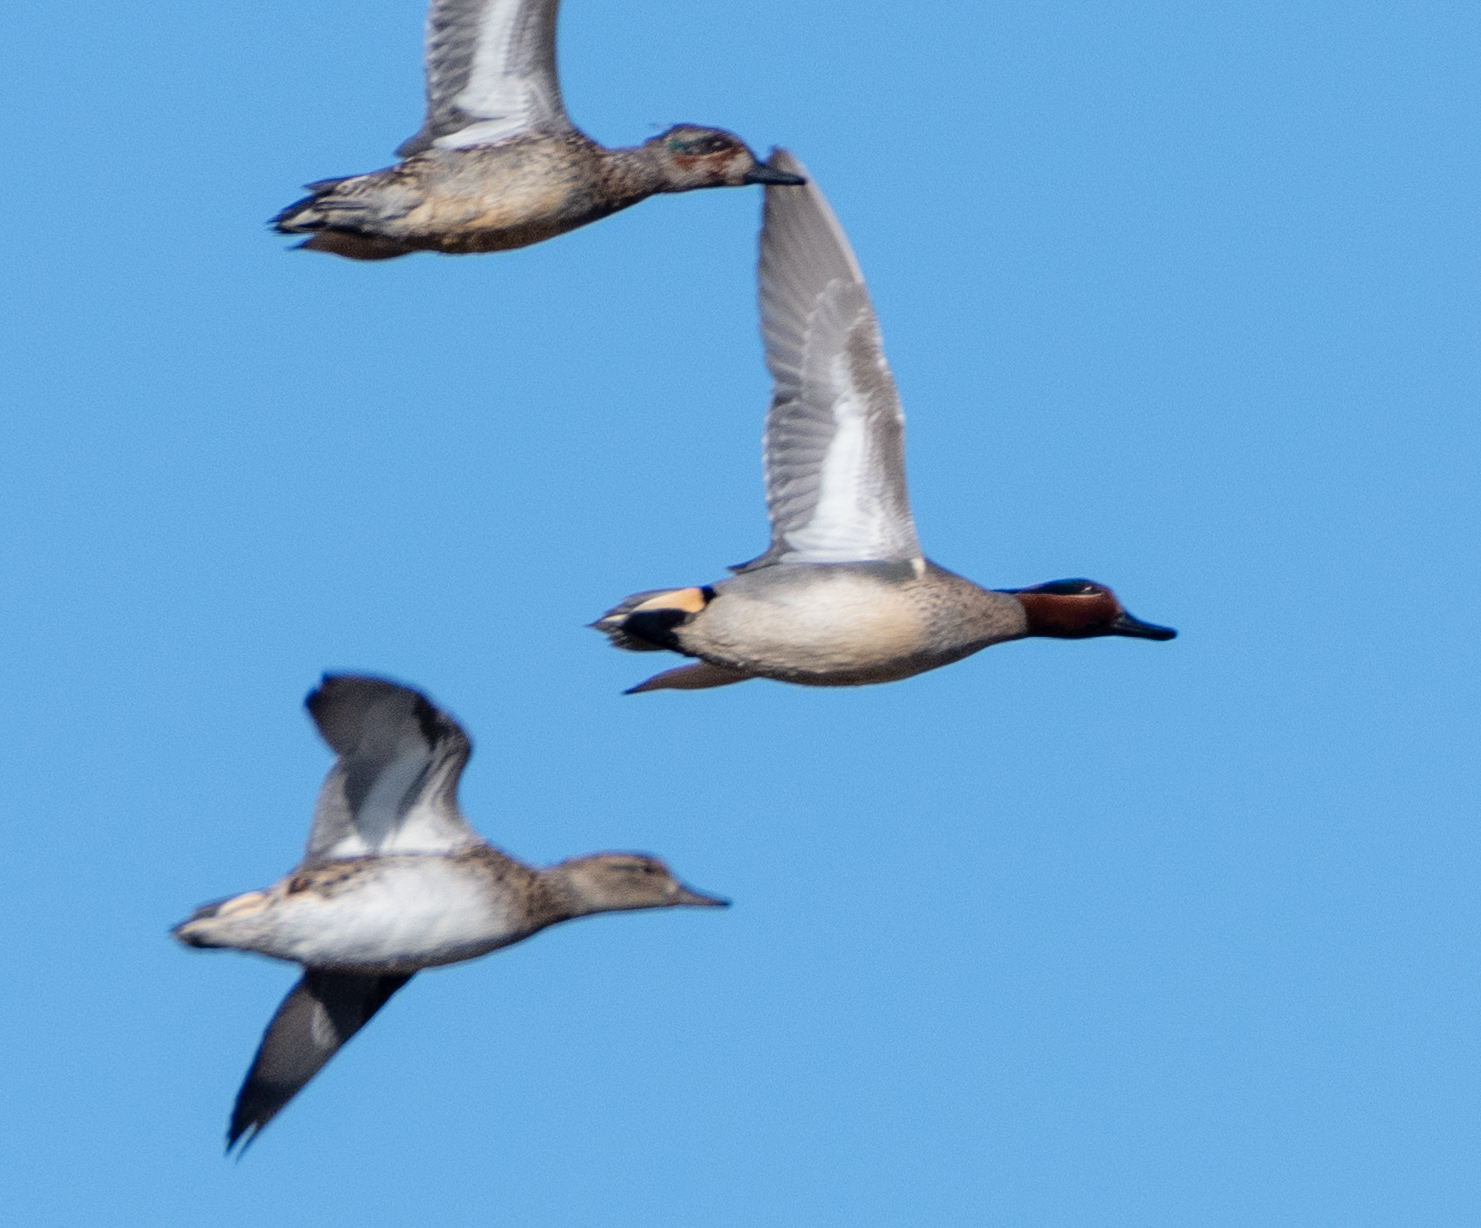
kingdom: Animalia
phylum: Chordata
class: Aves
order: Anseriformes
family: Anatidae
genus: Anas
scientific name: Anas crecca
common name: Eurasian teal
